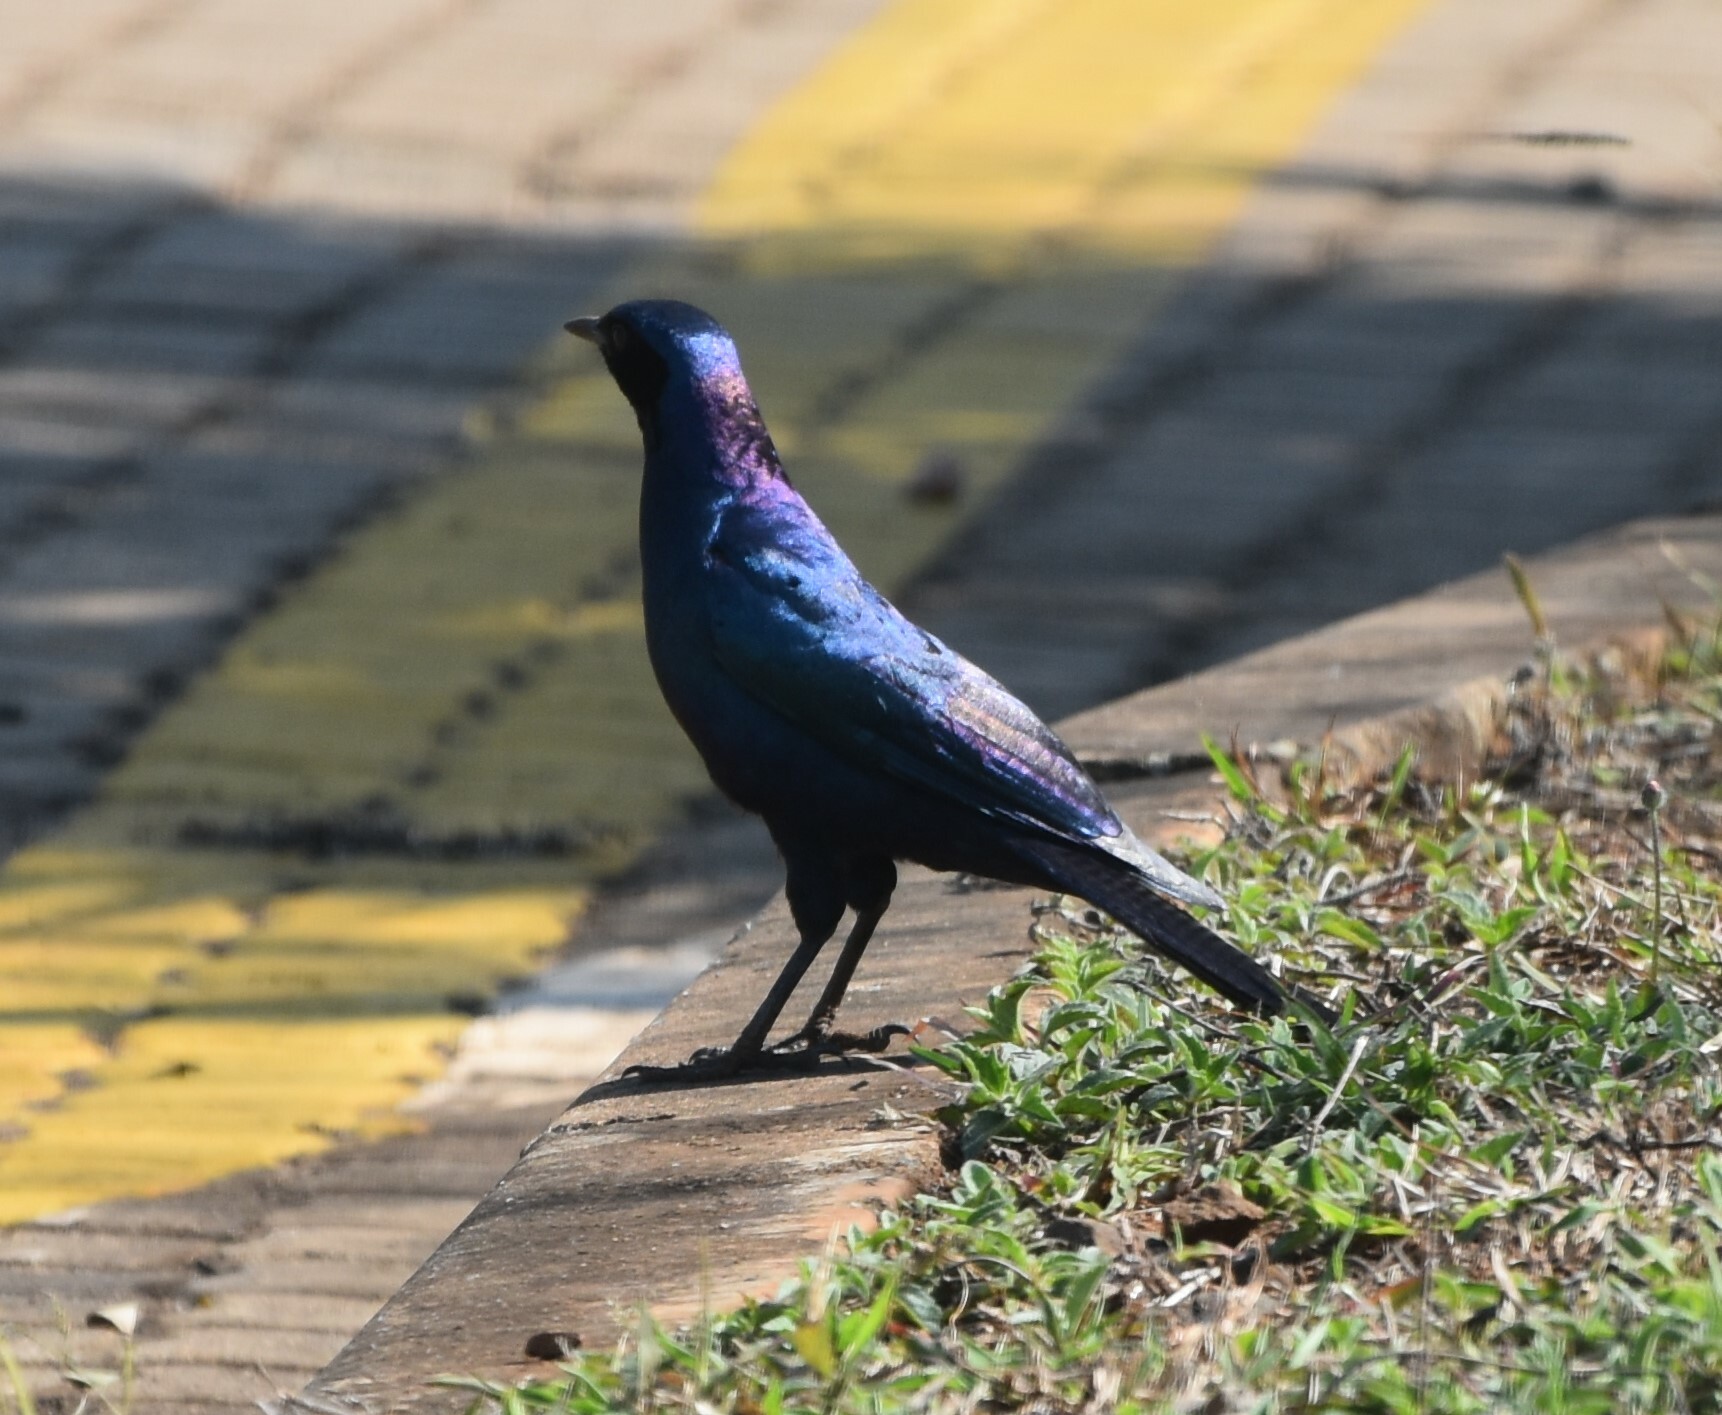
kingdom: Animalia
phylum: Chordata
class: Aves
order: Passeriformes
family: Sturnidae
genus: Lamprotornis
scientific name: Lamprotornis australis
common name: Burchell's starling
